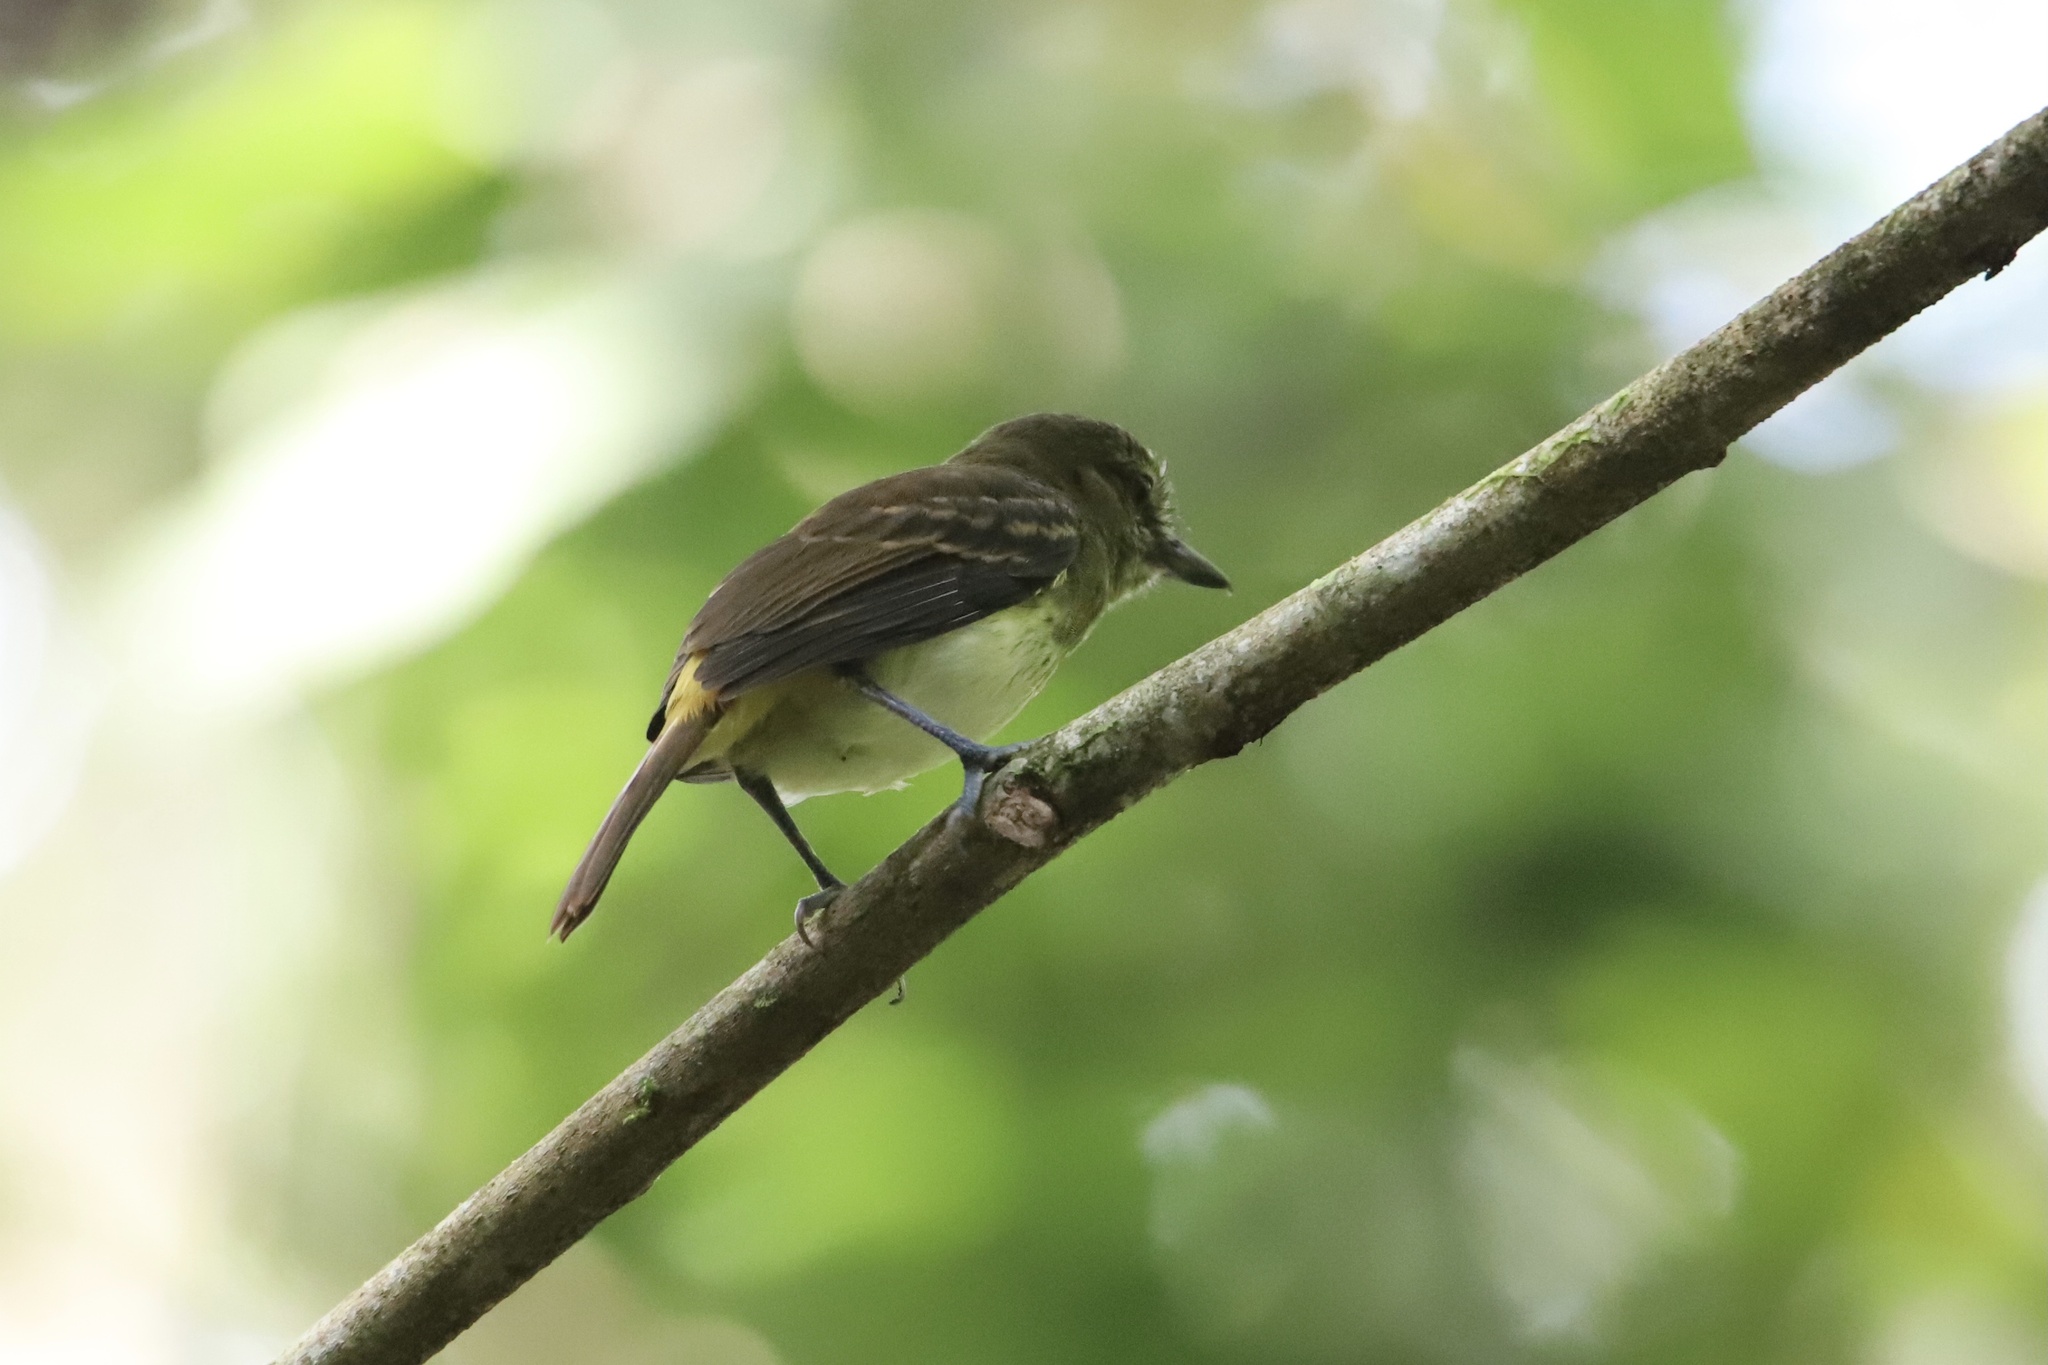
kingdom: Animalia
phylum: Chordata
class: Aves
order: Passeriformes
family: Tyrannidae
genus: Attila
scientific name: Attila spadiceus
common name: Bright-rumped attila
